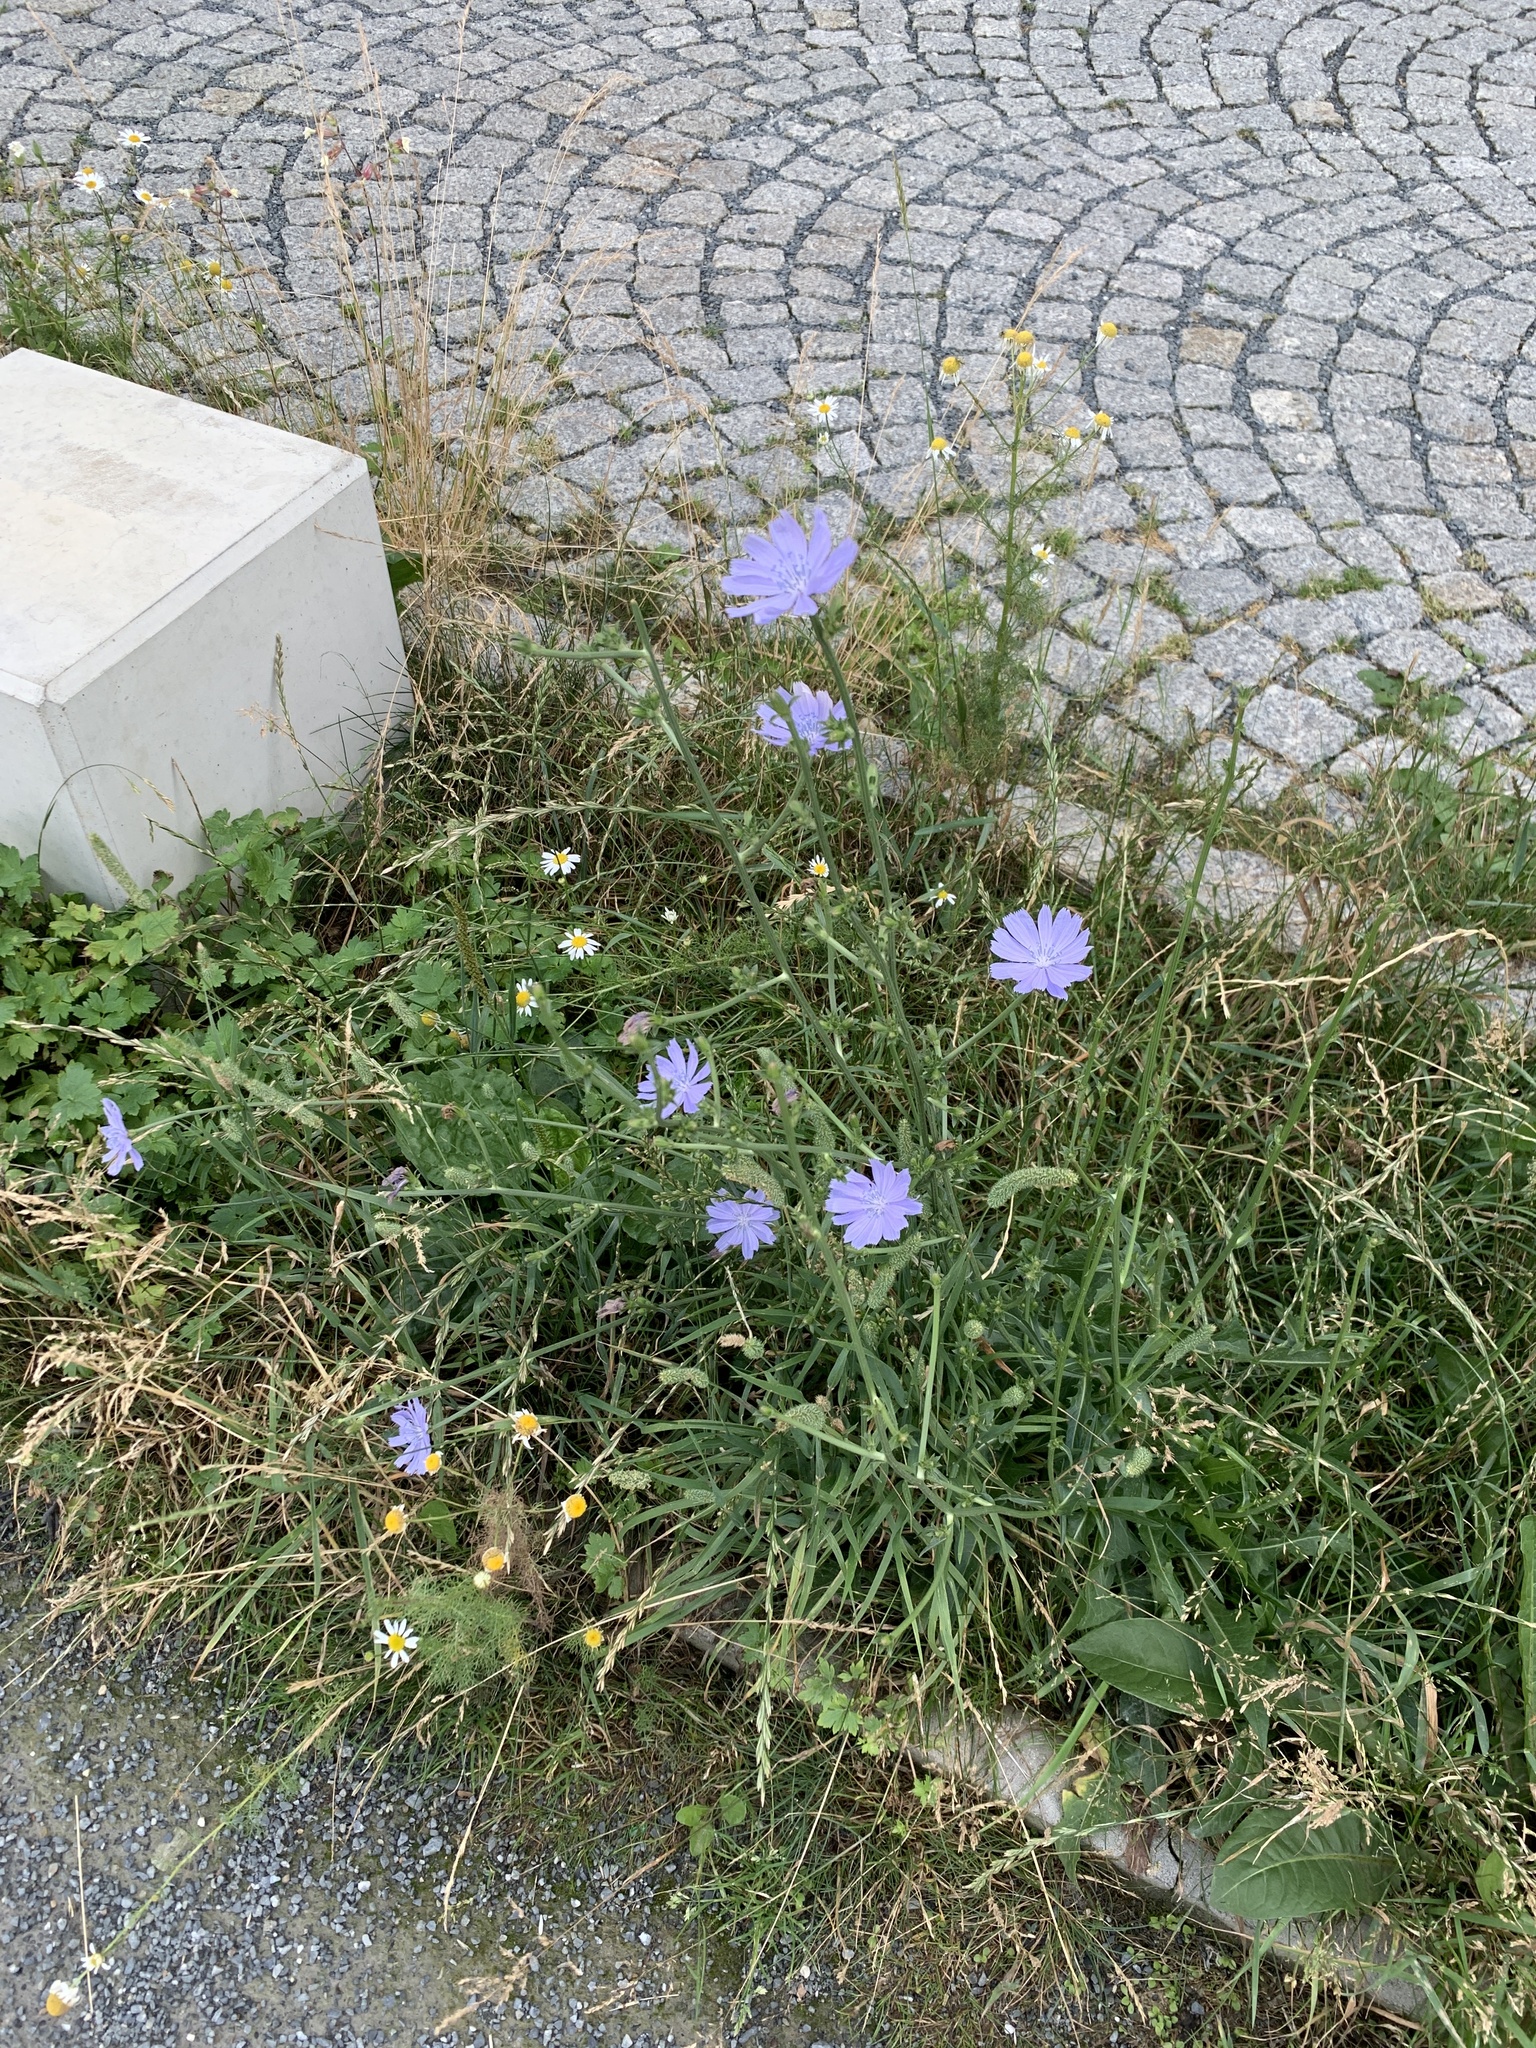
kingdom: Plantae
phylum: Tracheophyta
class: Magnoliopsida
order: Asterales
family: Asteraceae
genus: Cichorium
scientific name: Cichorium intybus
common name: Chicory
